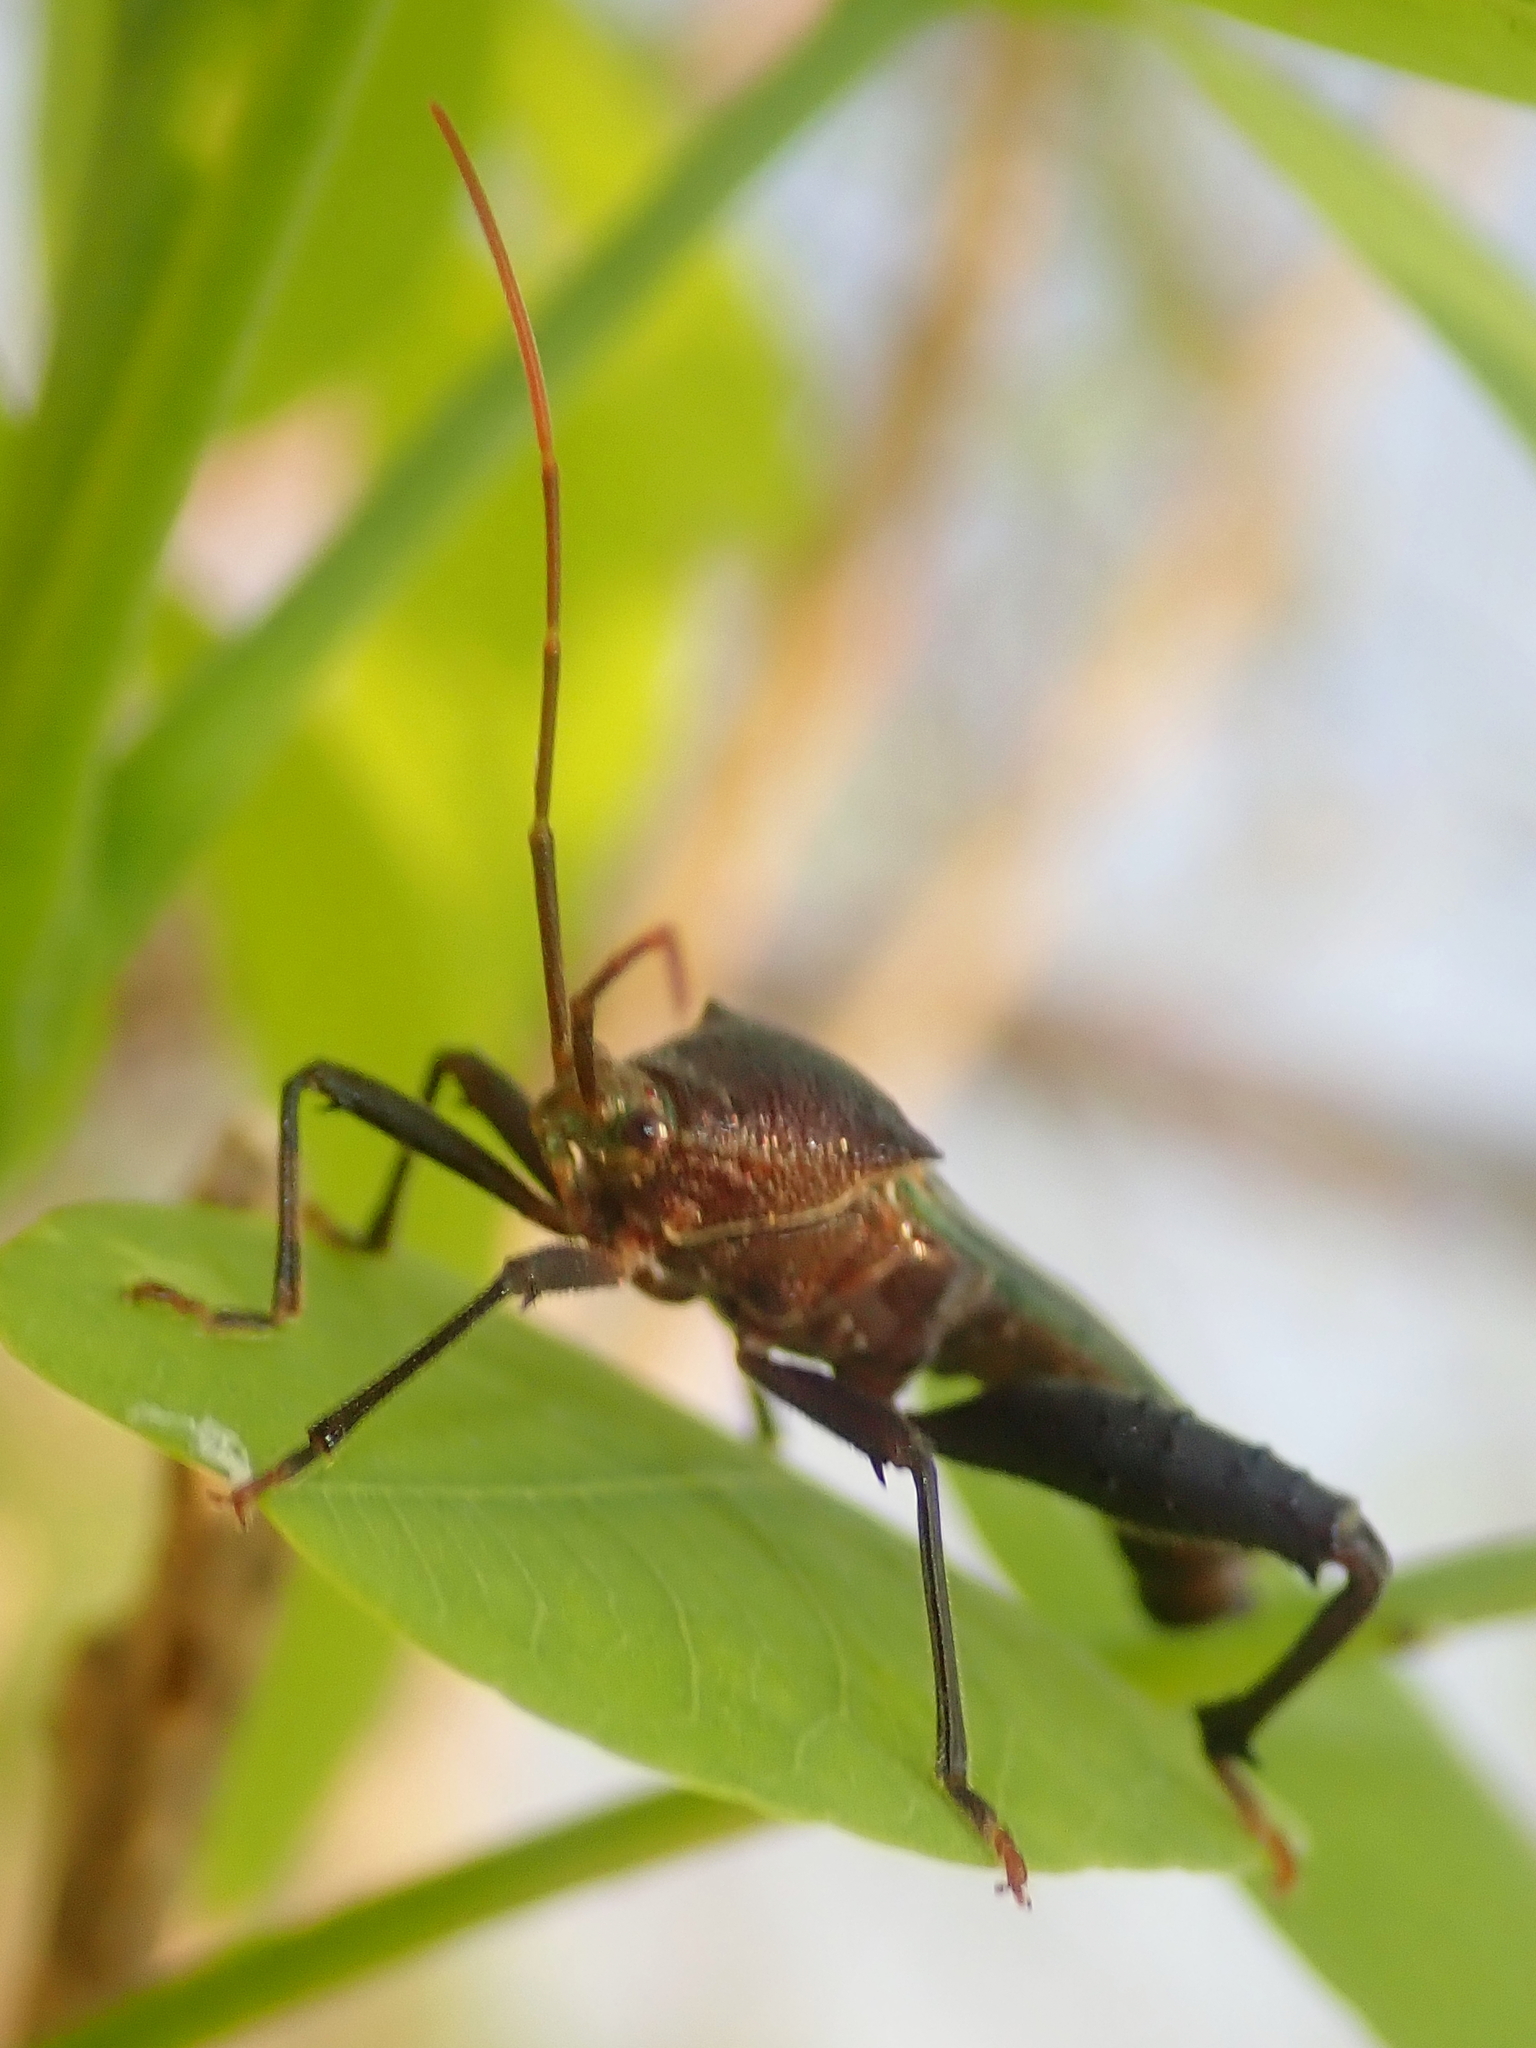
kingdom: Animalia
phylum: Arthropoda
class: Insecta
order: Hemiptera
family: Coreidae
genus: Grammopoecilus
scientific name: Grammopoecilus angustatus
